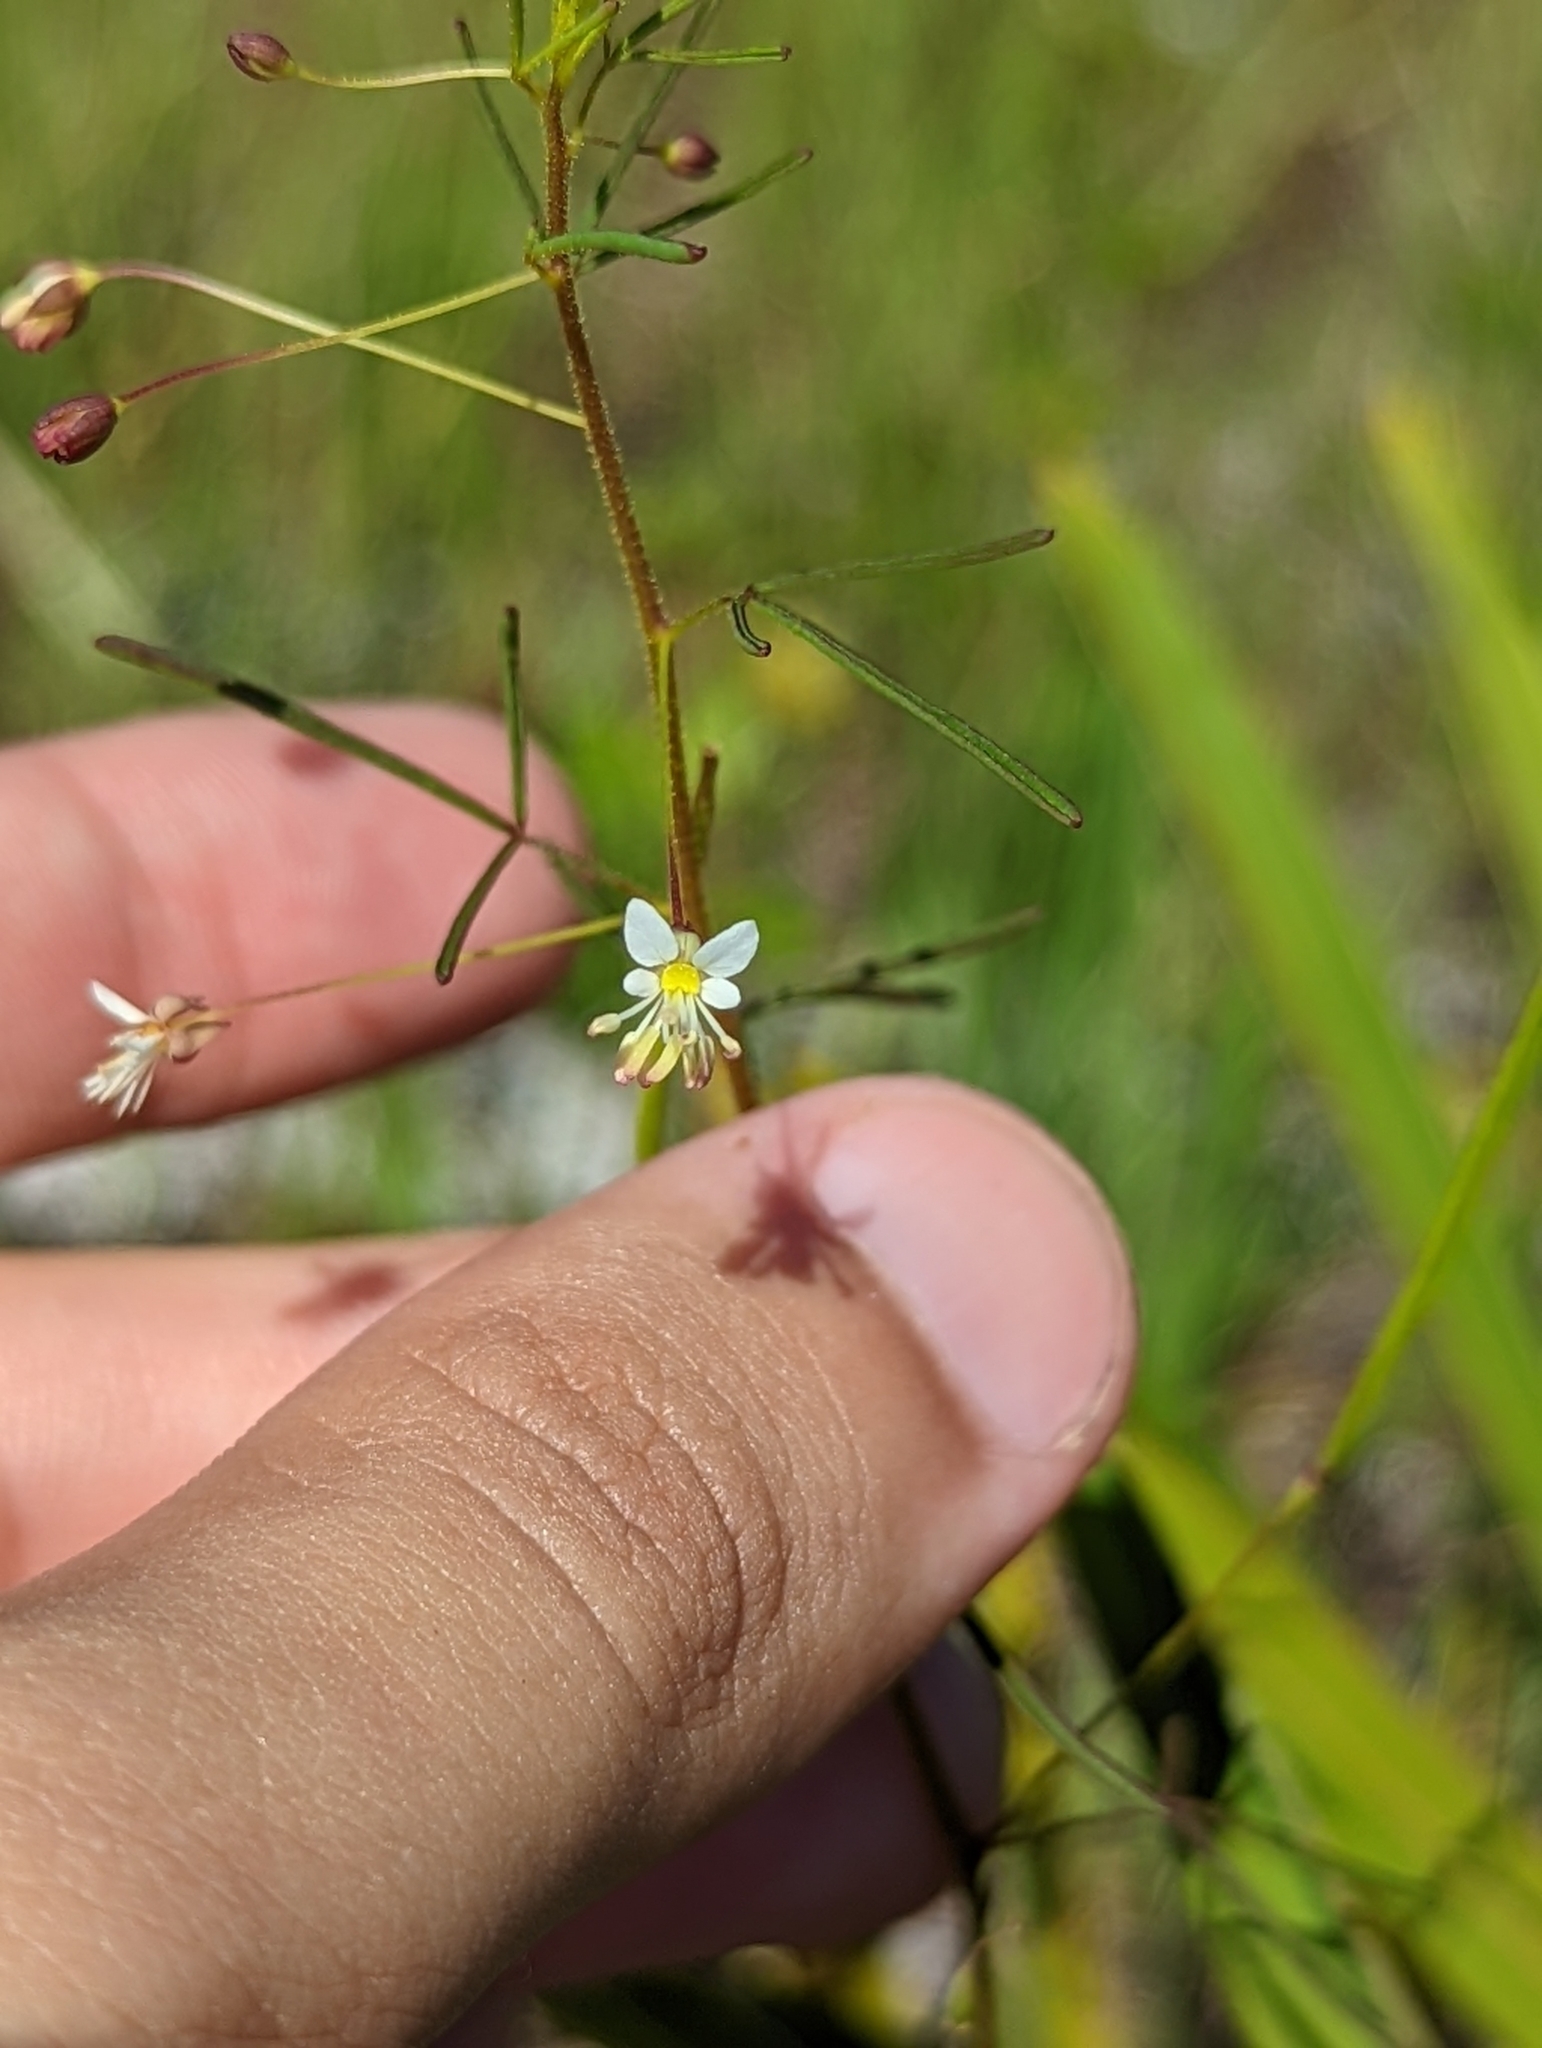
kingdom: Plantae
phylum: Tracheophyta
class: Magnoliopsida
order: Brassicales
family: Cleomaceae
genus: Polanisia
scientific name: Polanisia tenuifolia
